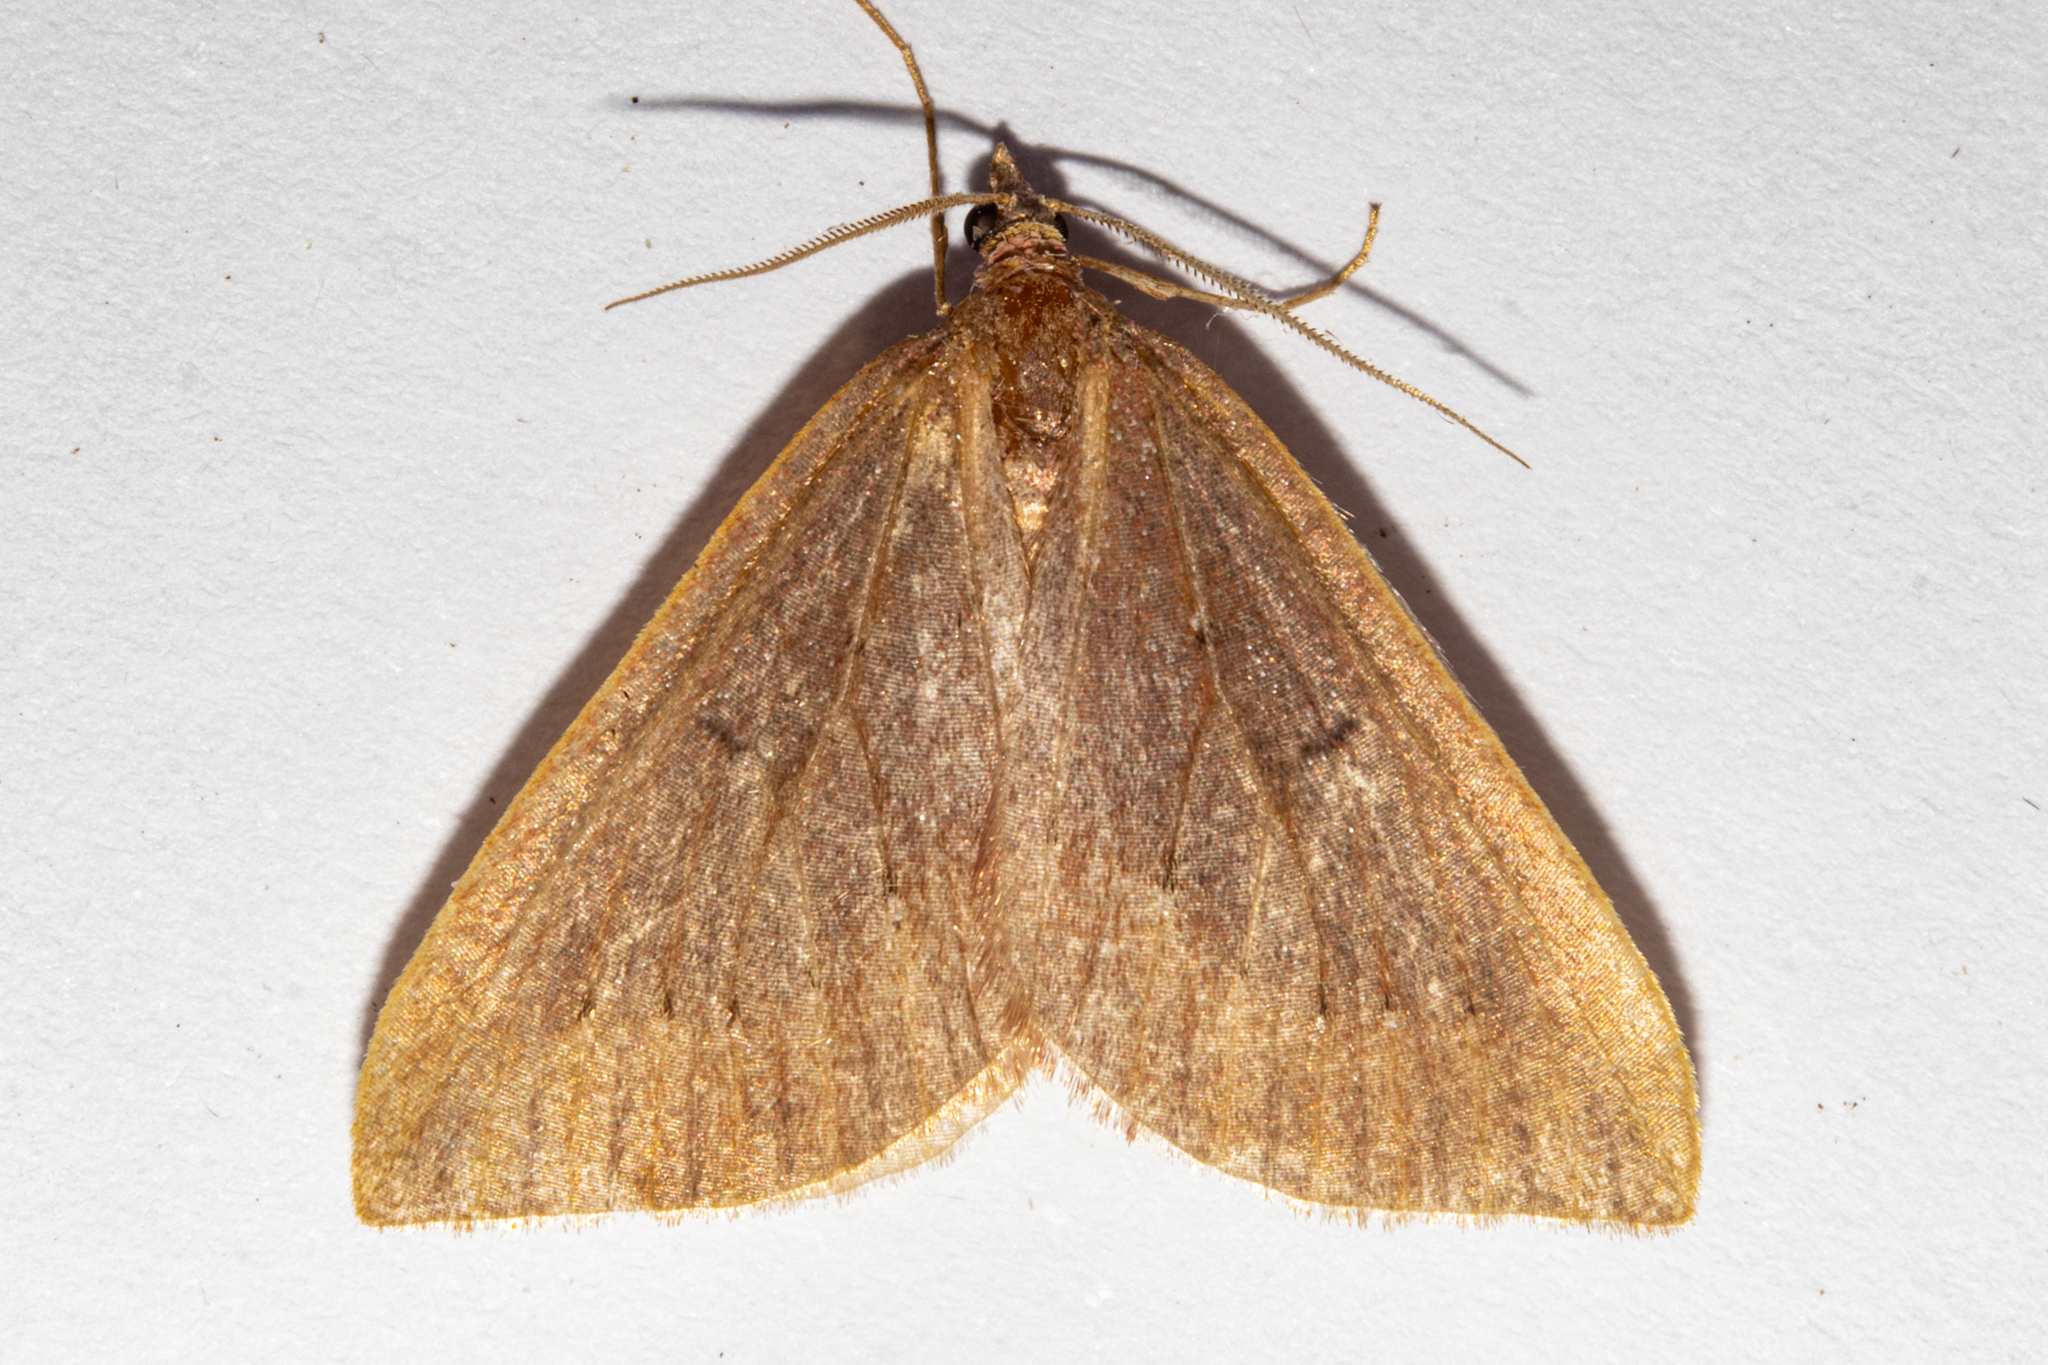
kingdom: Animalia
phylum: Arthropoda
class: Insecta
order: Lepidoptera
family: Geometridae
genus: Xanthorhoe
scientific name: Xanthorhoe occulta
